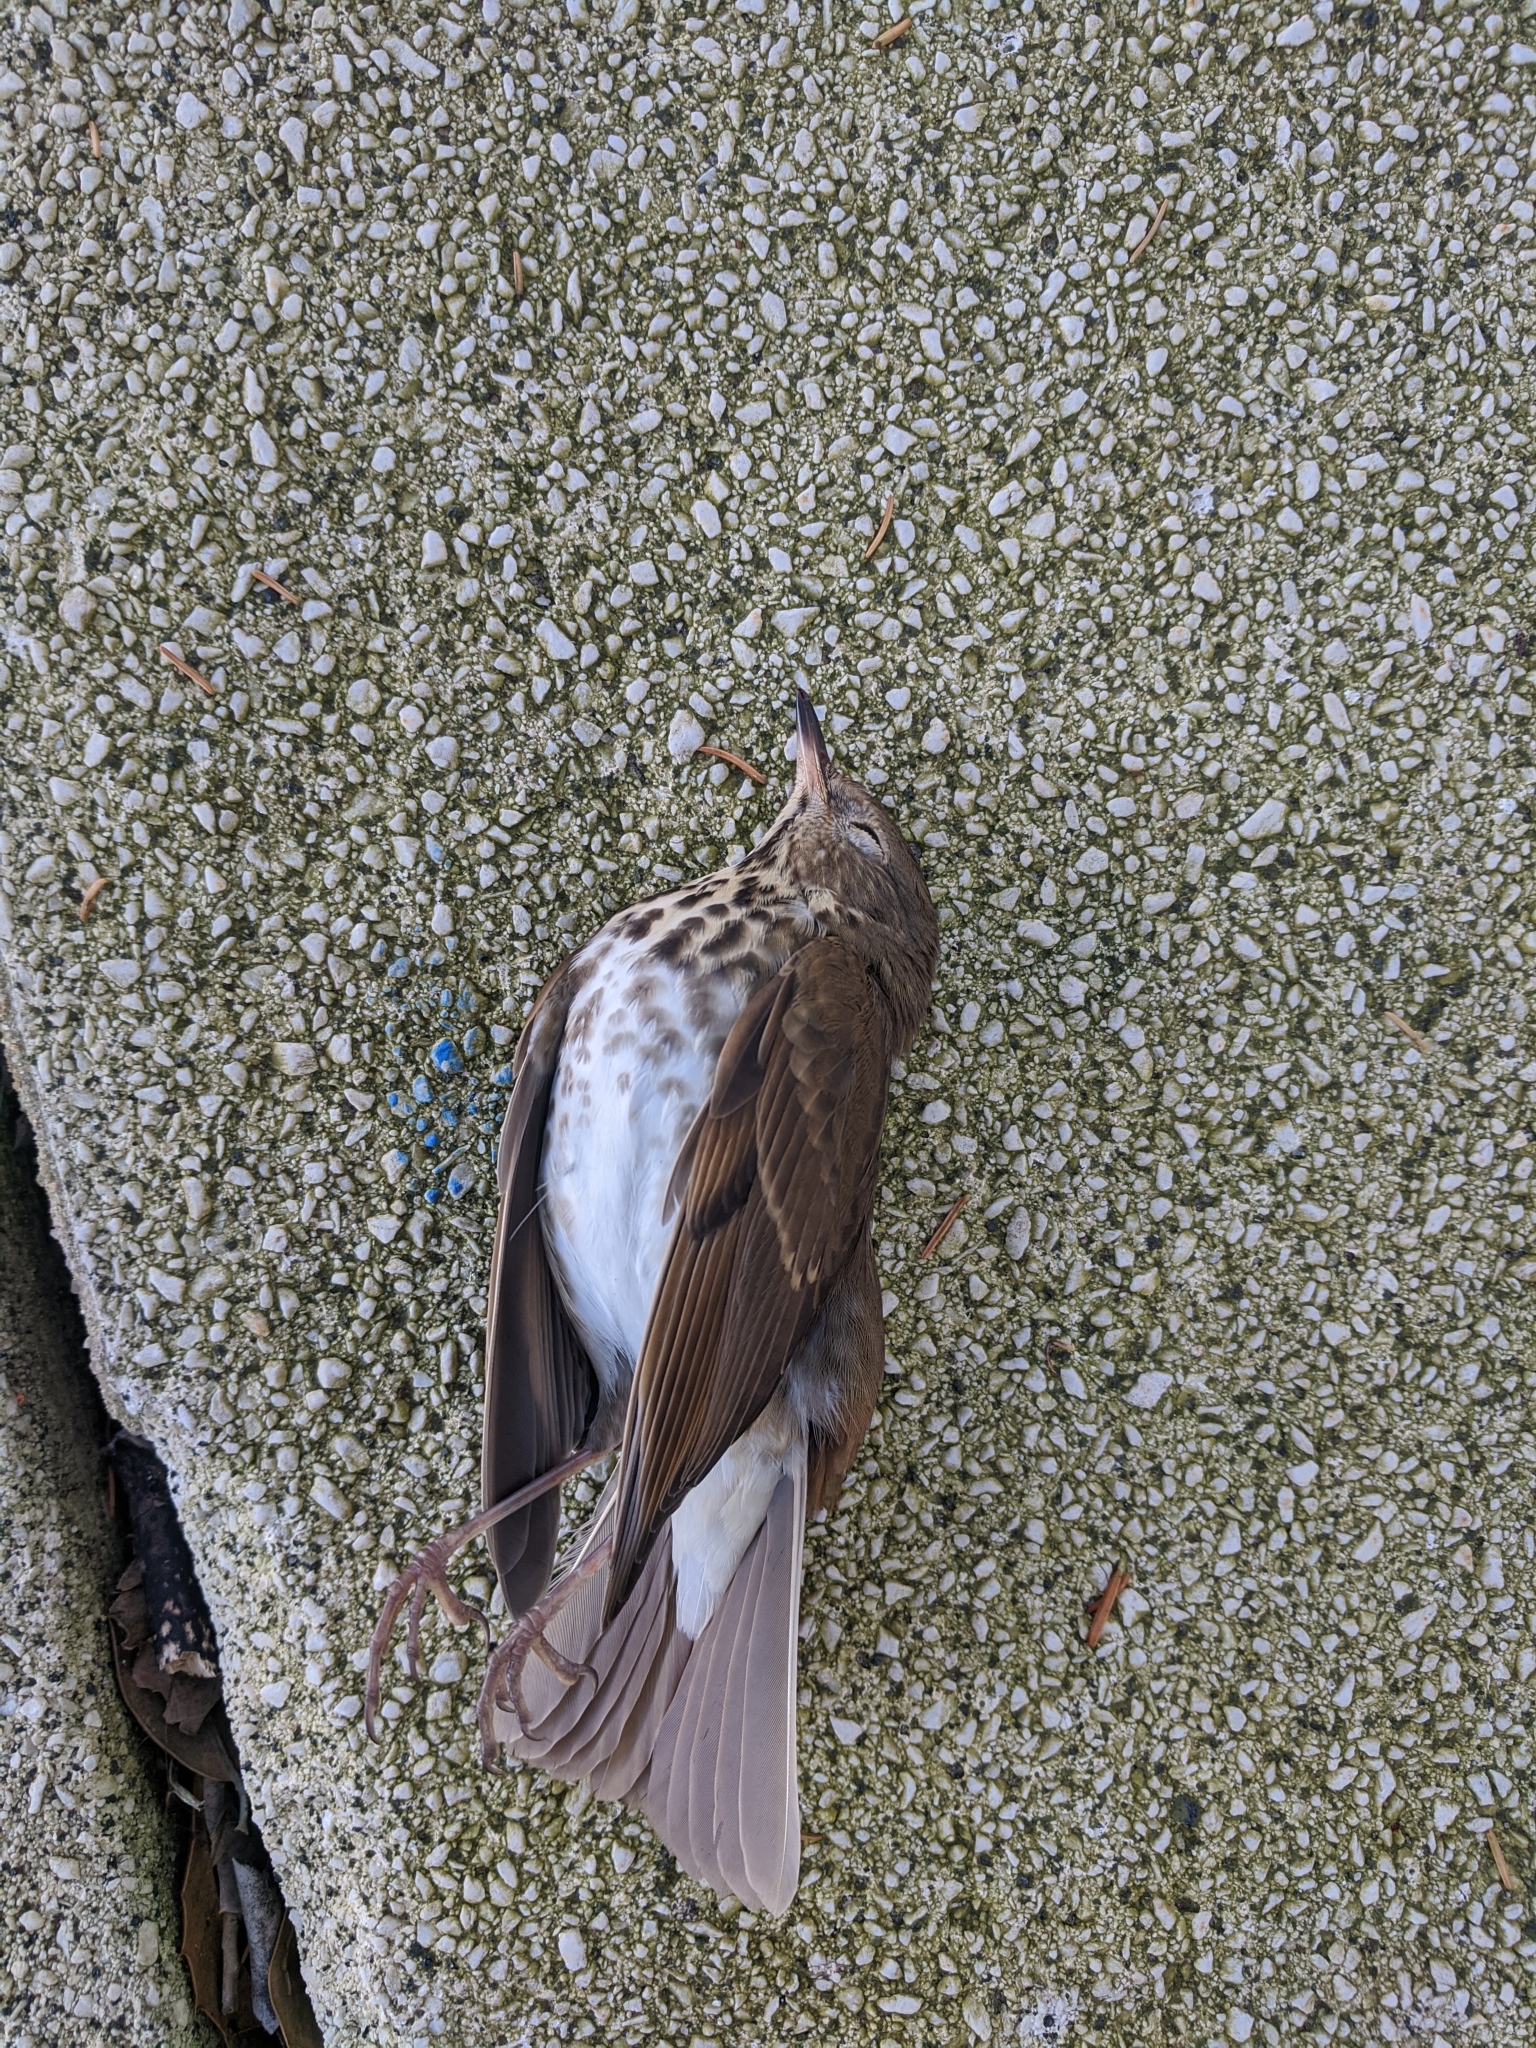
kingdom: Animalia
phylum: Chordata
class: Aves
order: Passeriformes
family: Turdidae
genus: Catharus
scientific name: Catharus guttatus
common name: Hermit thrush
